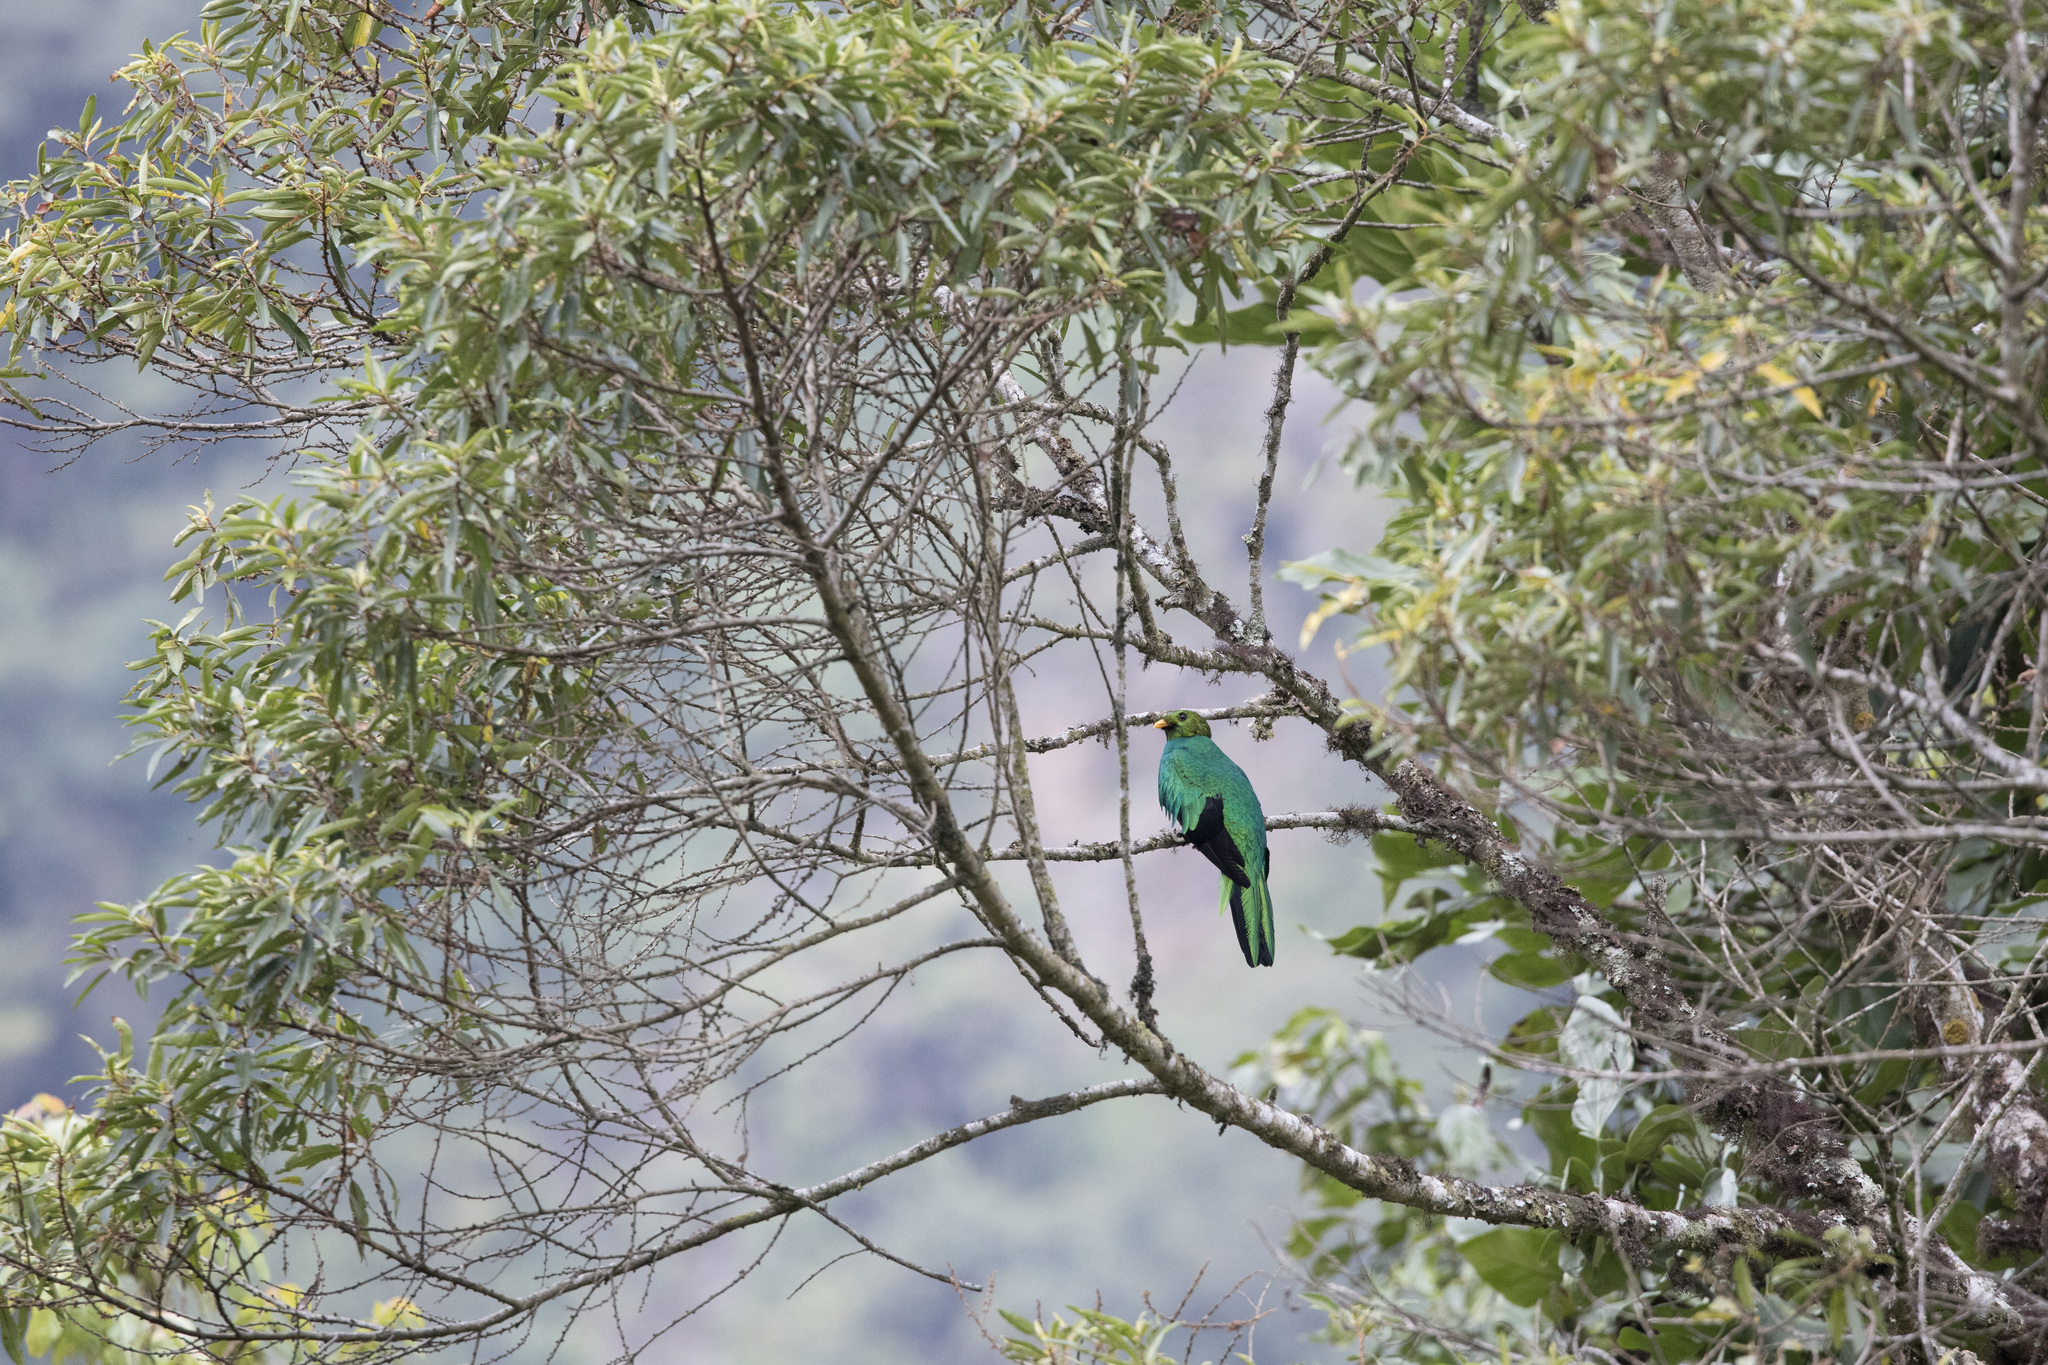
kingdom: Animalia
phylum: Chordata
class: Aves
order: Trogoniformes
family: Trogonidae
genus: Pharomachrus
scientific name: Pharomachrus auriceps
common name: Golden-headed quetzal
